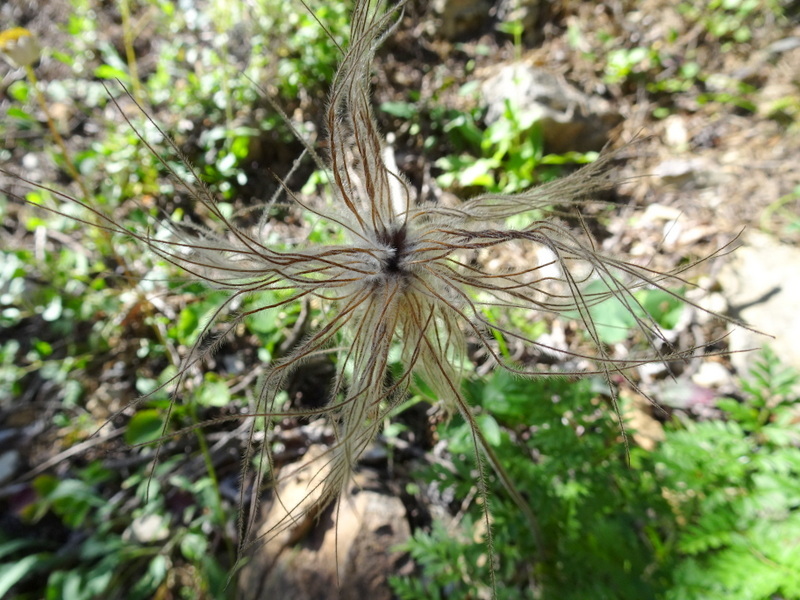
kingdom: Plantae
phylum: Tracheophyta
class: Magnoliopsida
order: Ranunculales
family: Ranunculaceae
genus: Pulsatilla
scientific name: Pulsatilla alpina
